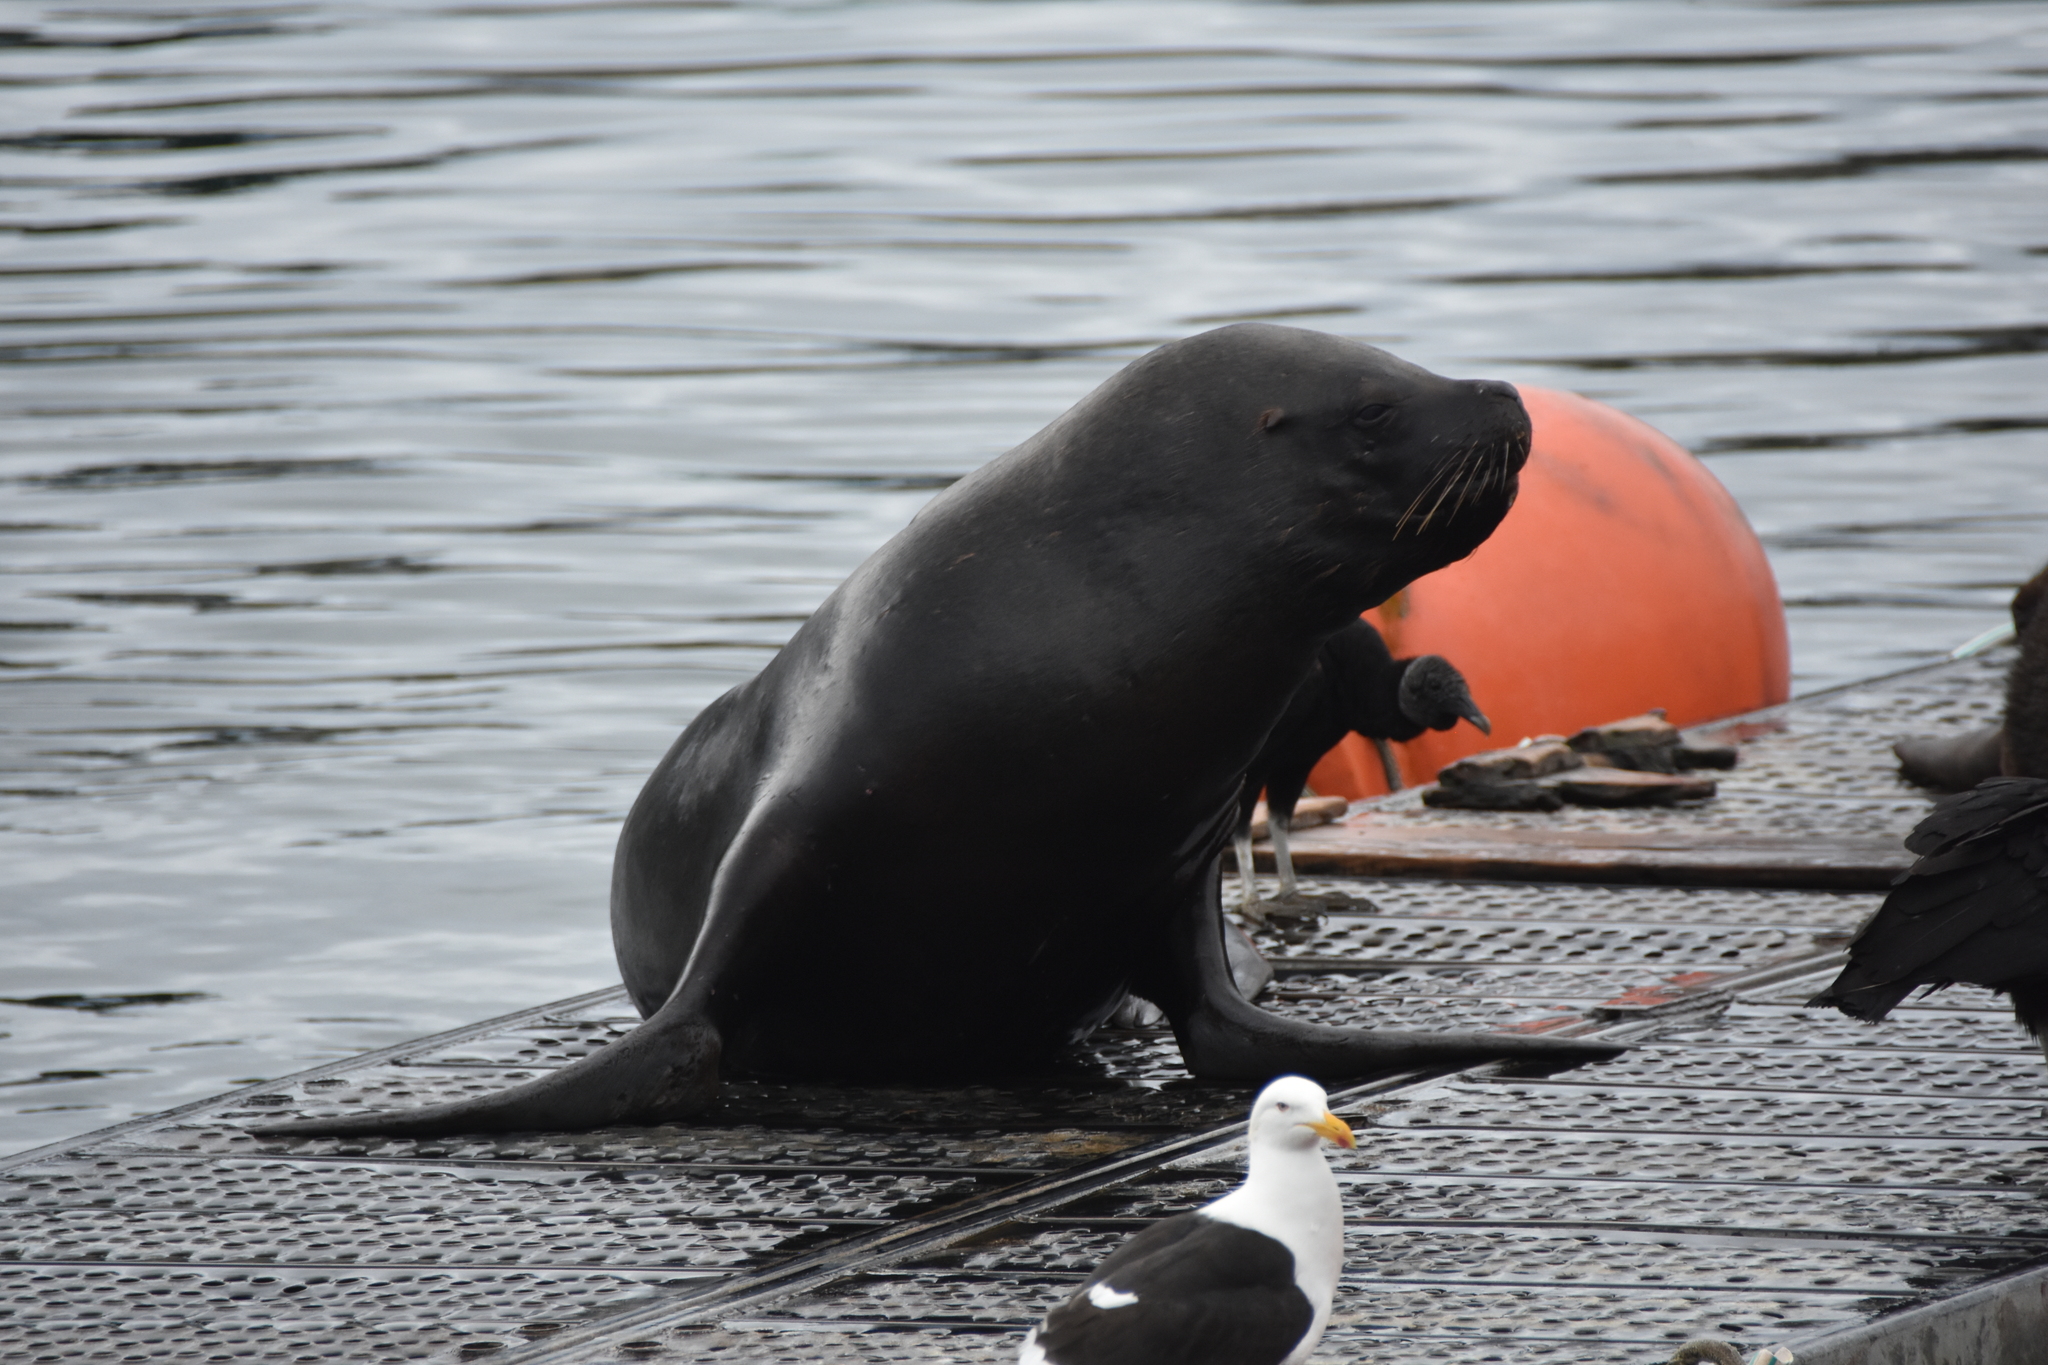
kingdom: Animalia
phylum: Chordata
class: Mammalia
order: Carnivora
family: Otariidae
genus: Otaria
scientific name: Otaria byronia
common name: South american sea lion
